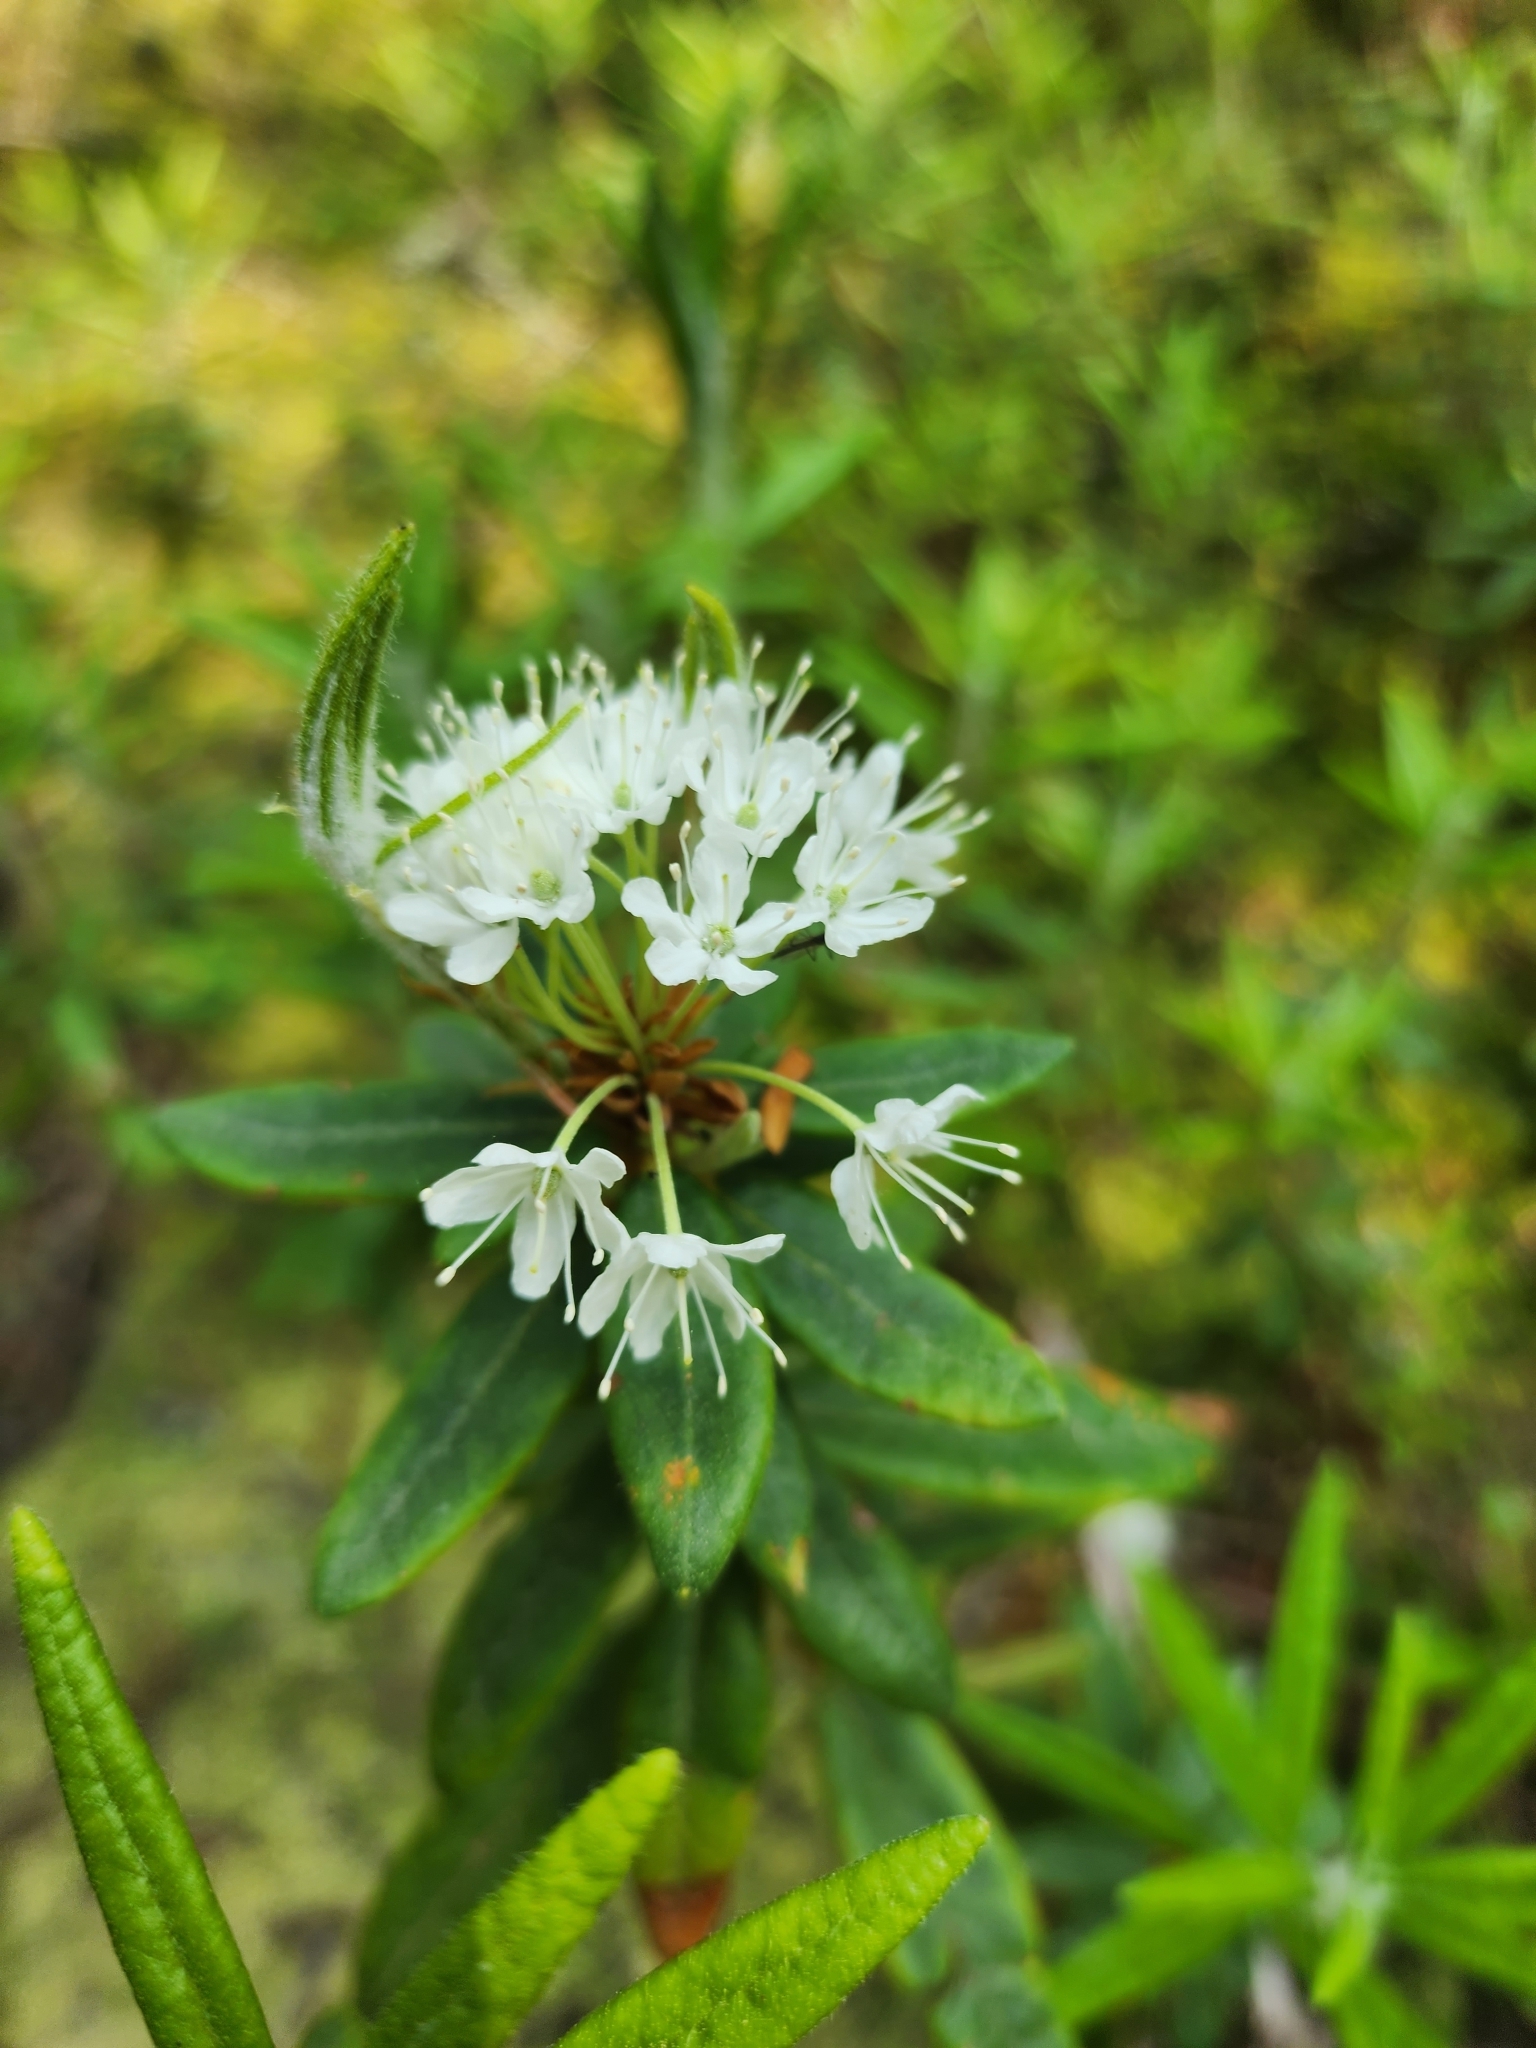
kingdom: Plantae
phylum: Tracheophyta
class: Magnoliopsida
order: Ericales
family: Ericaceae
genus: Rhododendron
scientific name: Rhododendron groenlandicum
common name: Bog labrador tea
